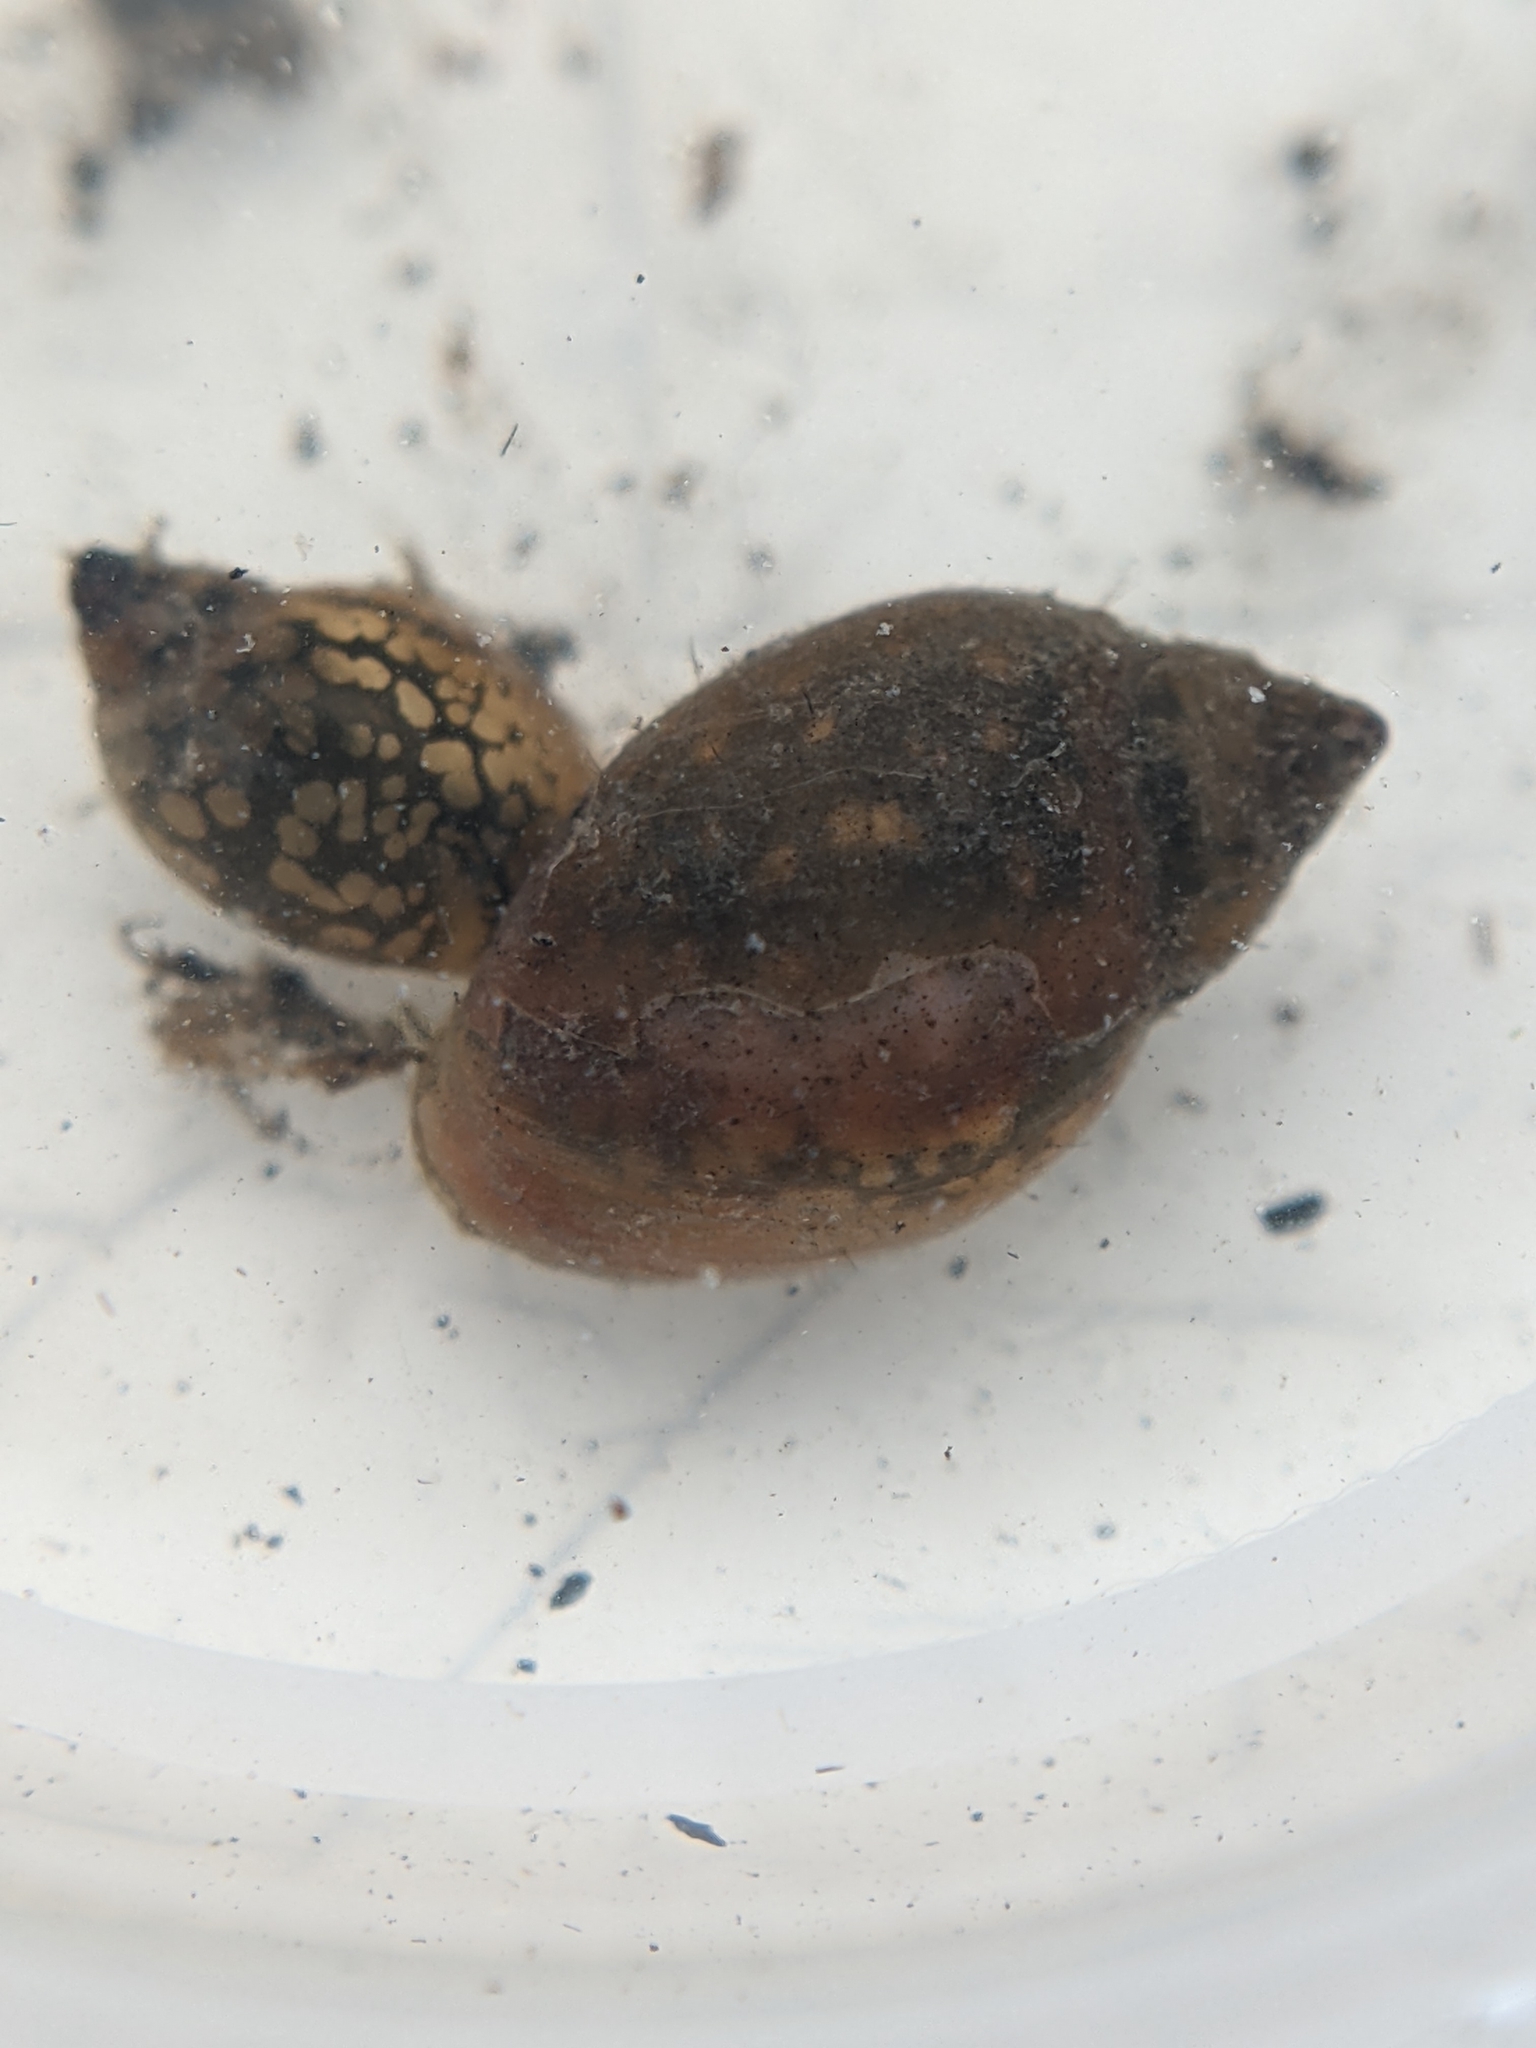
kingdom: Animalia
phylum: Mollusca
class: Gastropoda
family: Physidae
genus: Physella
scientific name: Physella acuta
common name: European physa
